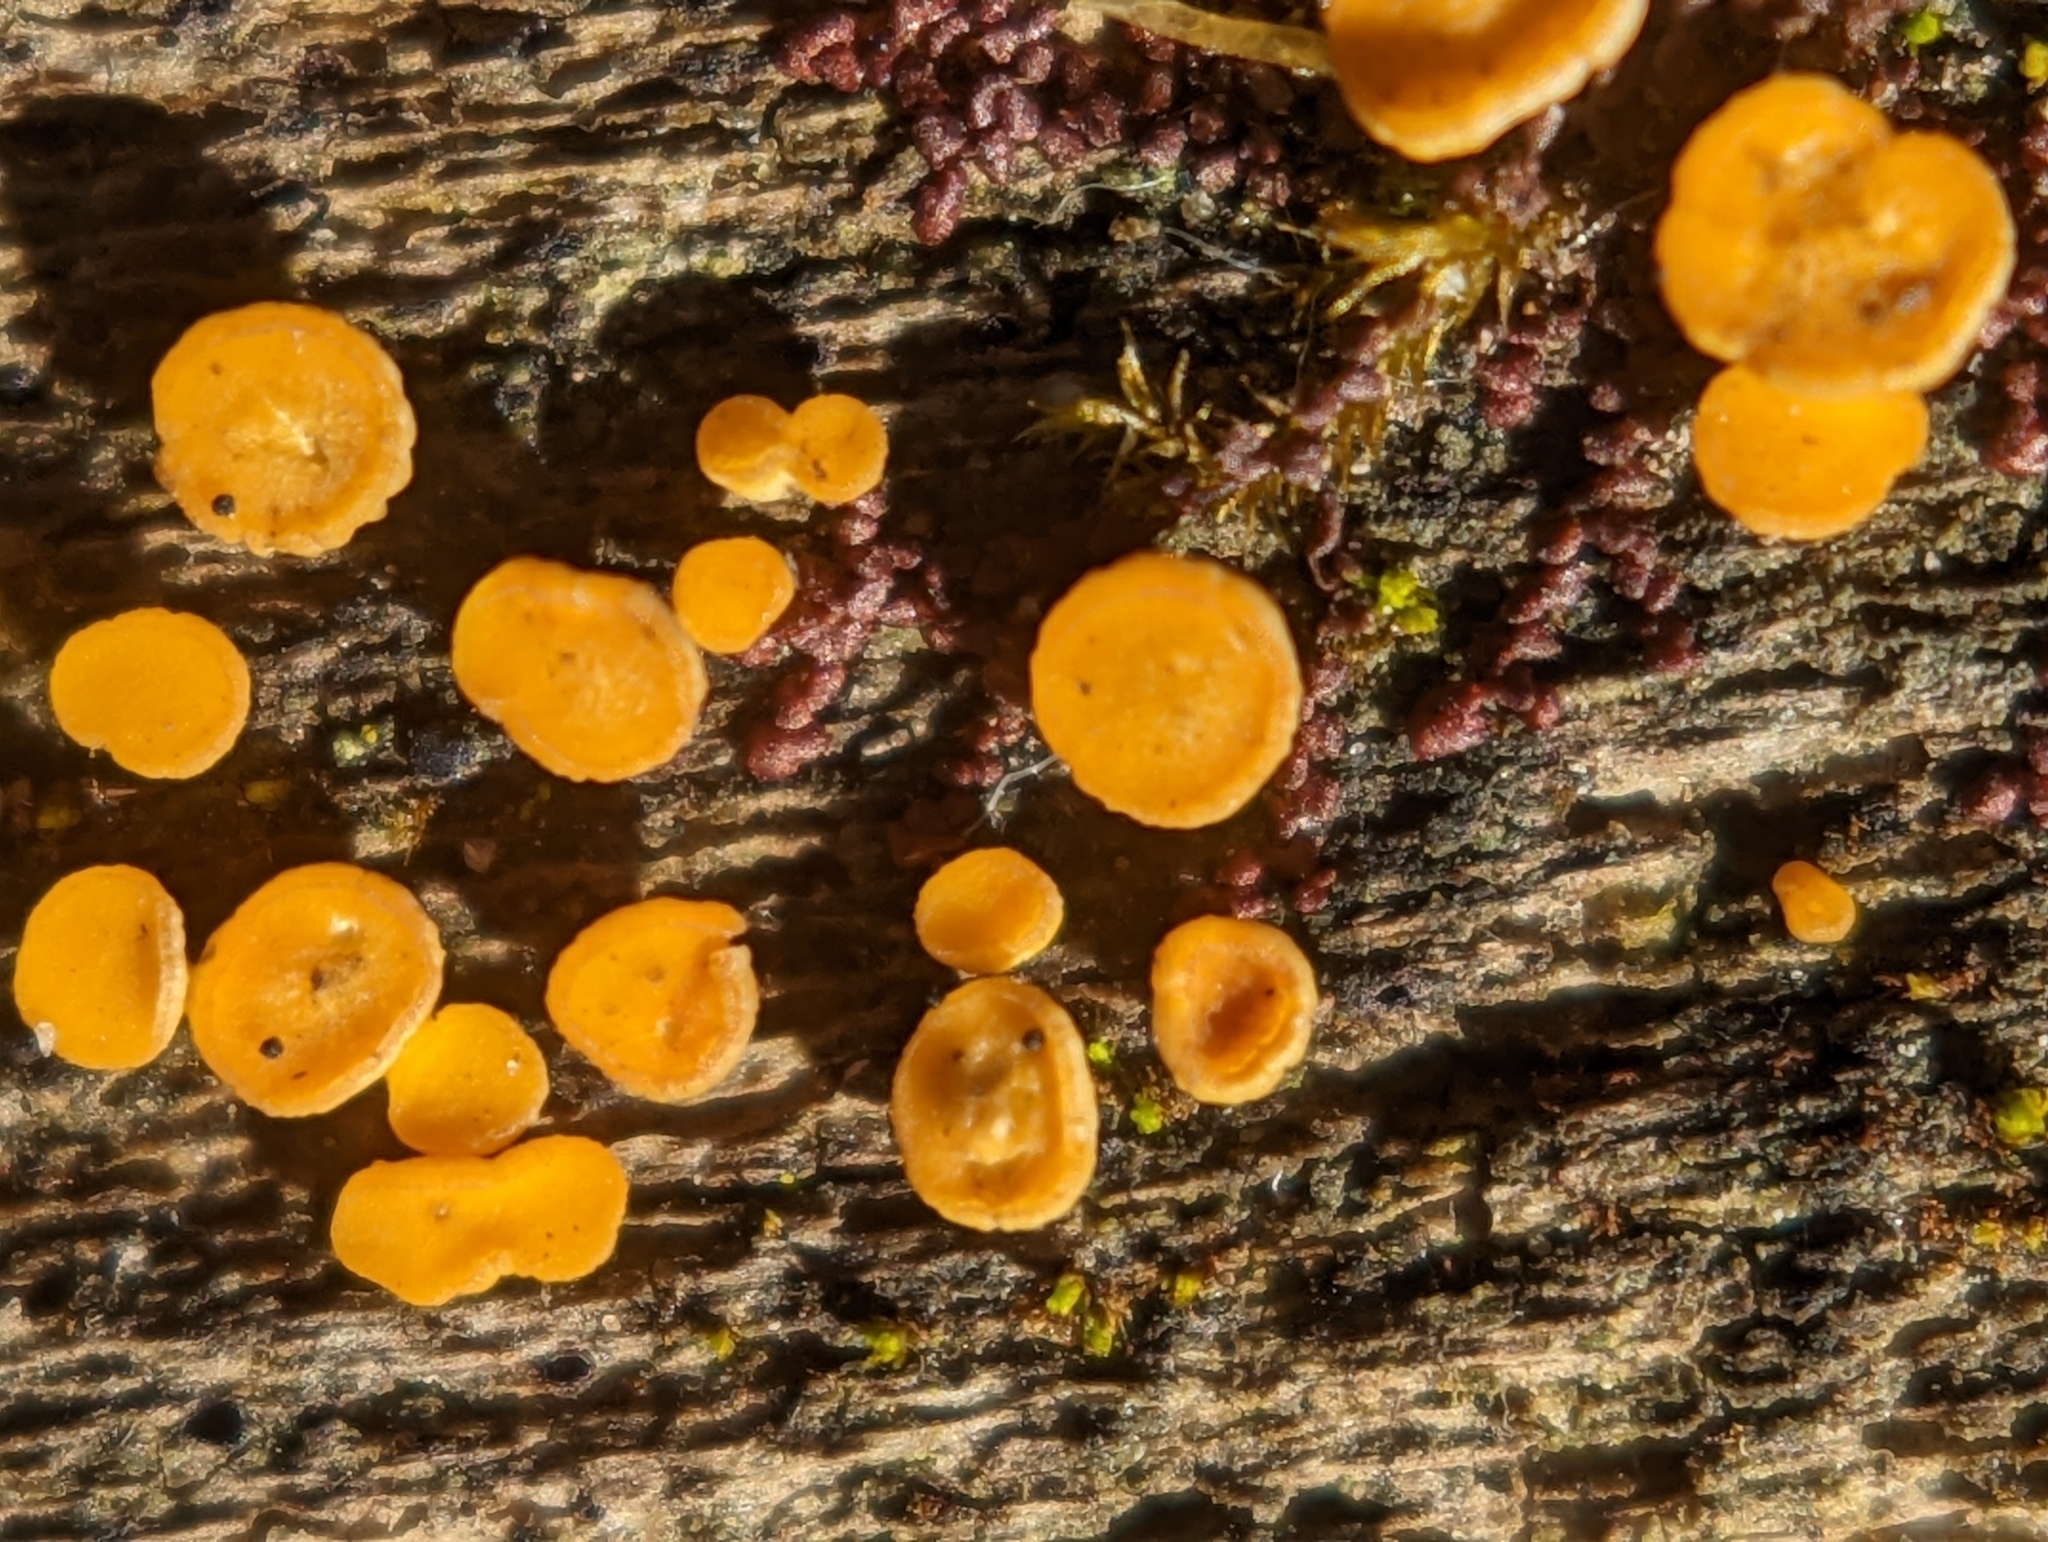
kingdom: Fungi
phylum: Ascomycota
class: Leotiomycetes
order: Helotiales
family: Pezizellaceae
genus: Calycina
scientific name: Calycina citrina
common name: Yellow fairy cups
